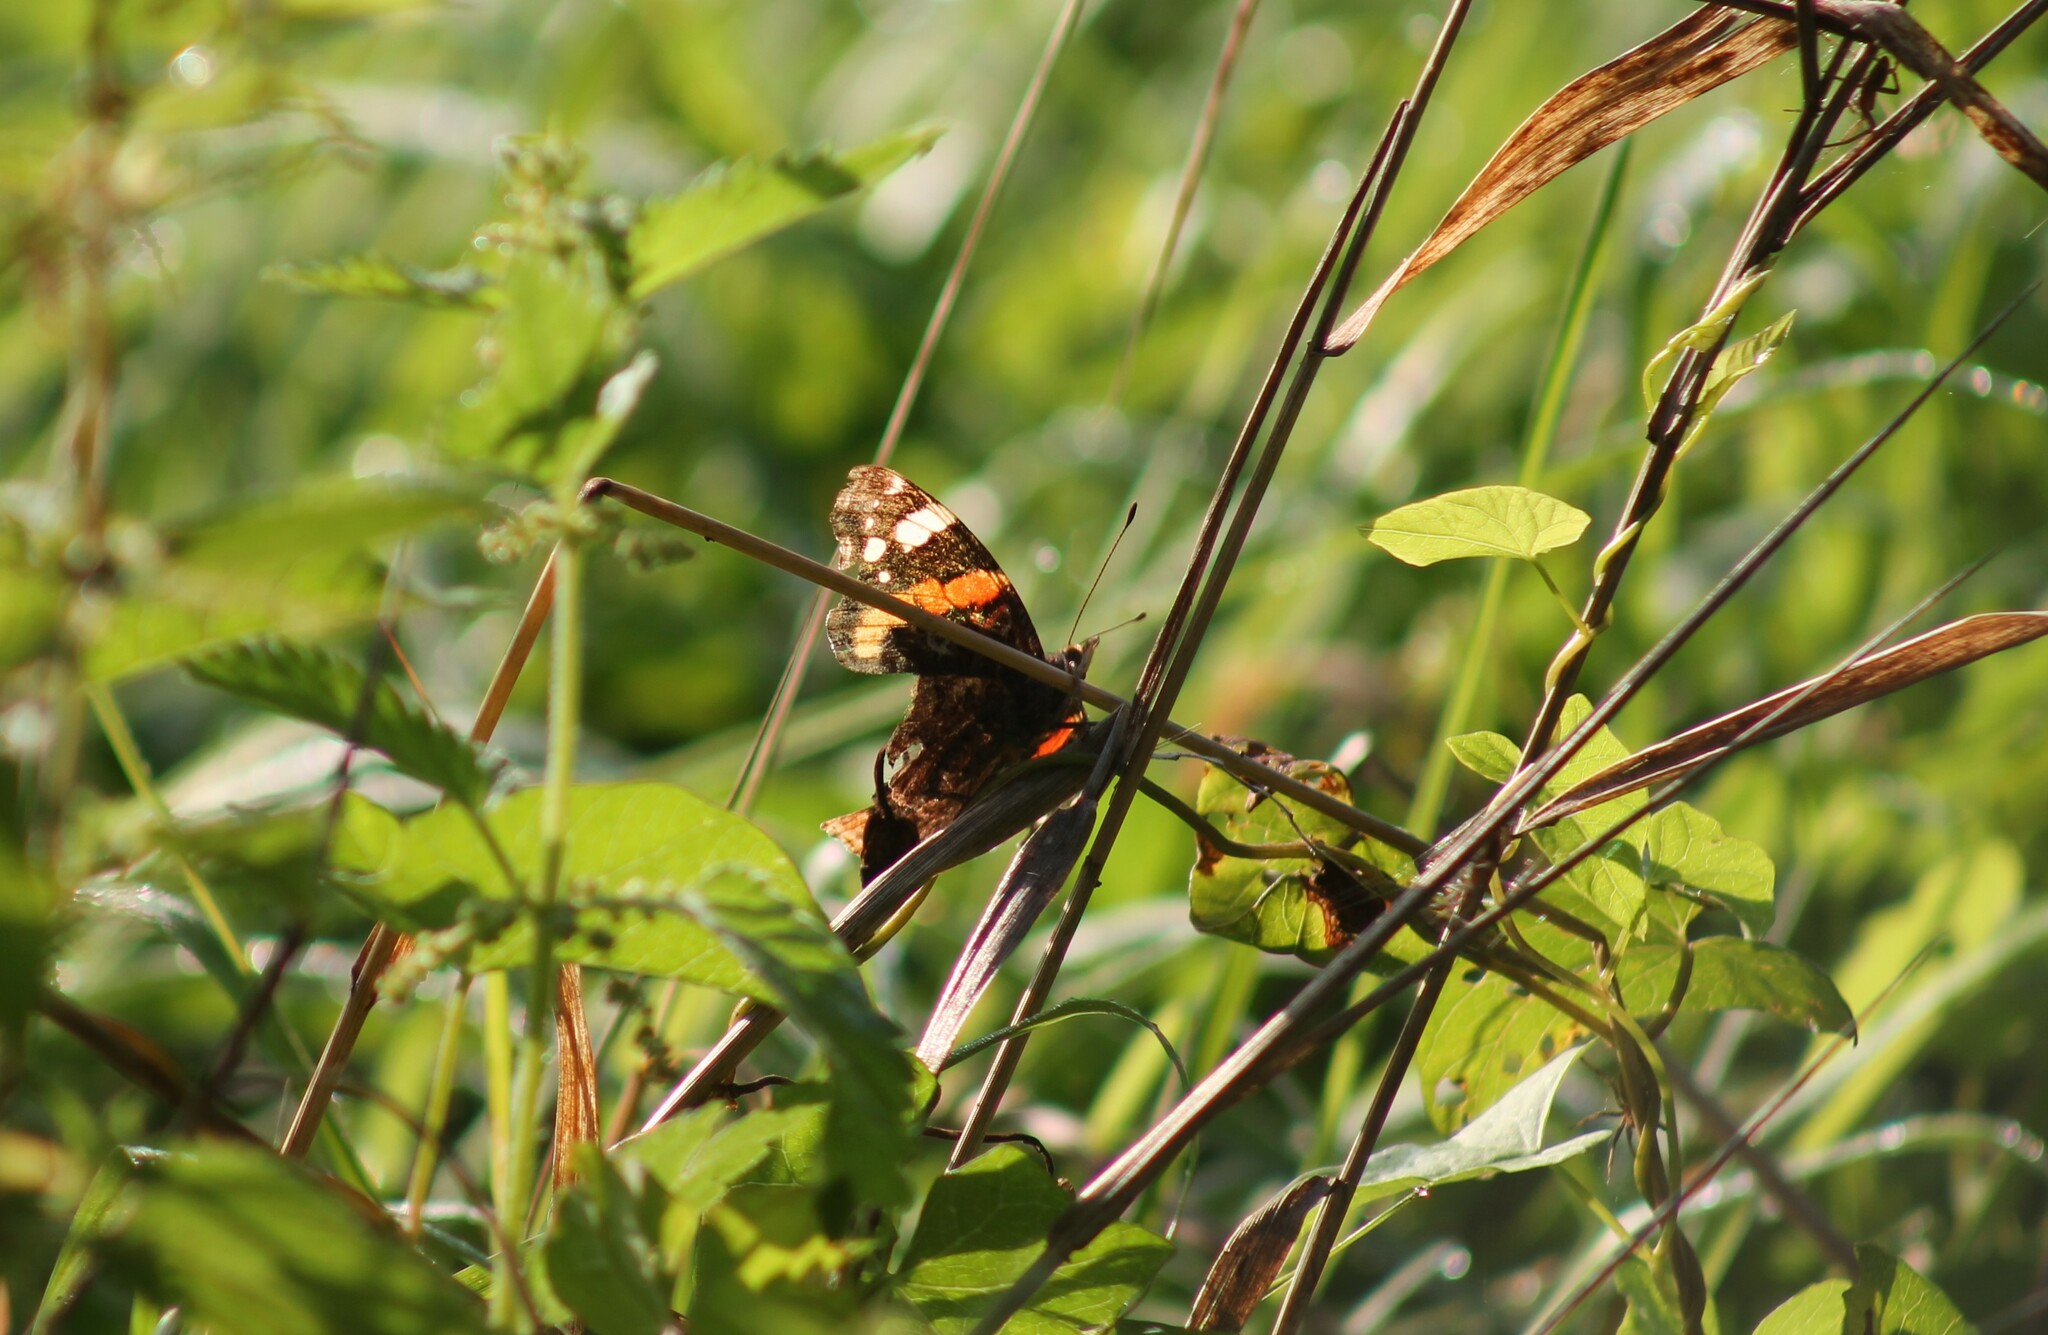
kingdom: Animalia
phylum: Arthropoda
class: Insecta
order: Lepidoptera
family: Nymphalidae
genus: Vanessa
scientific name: Vanessa atalanta
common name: Red admiral
